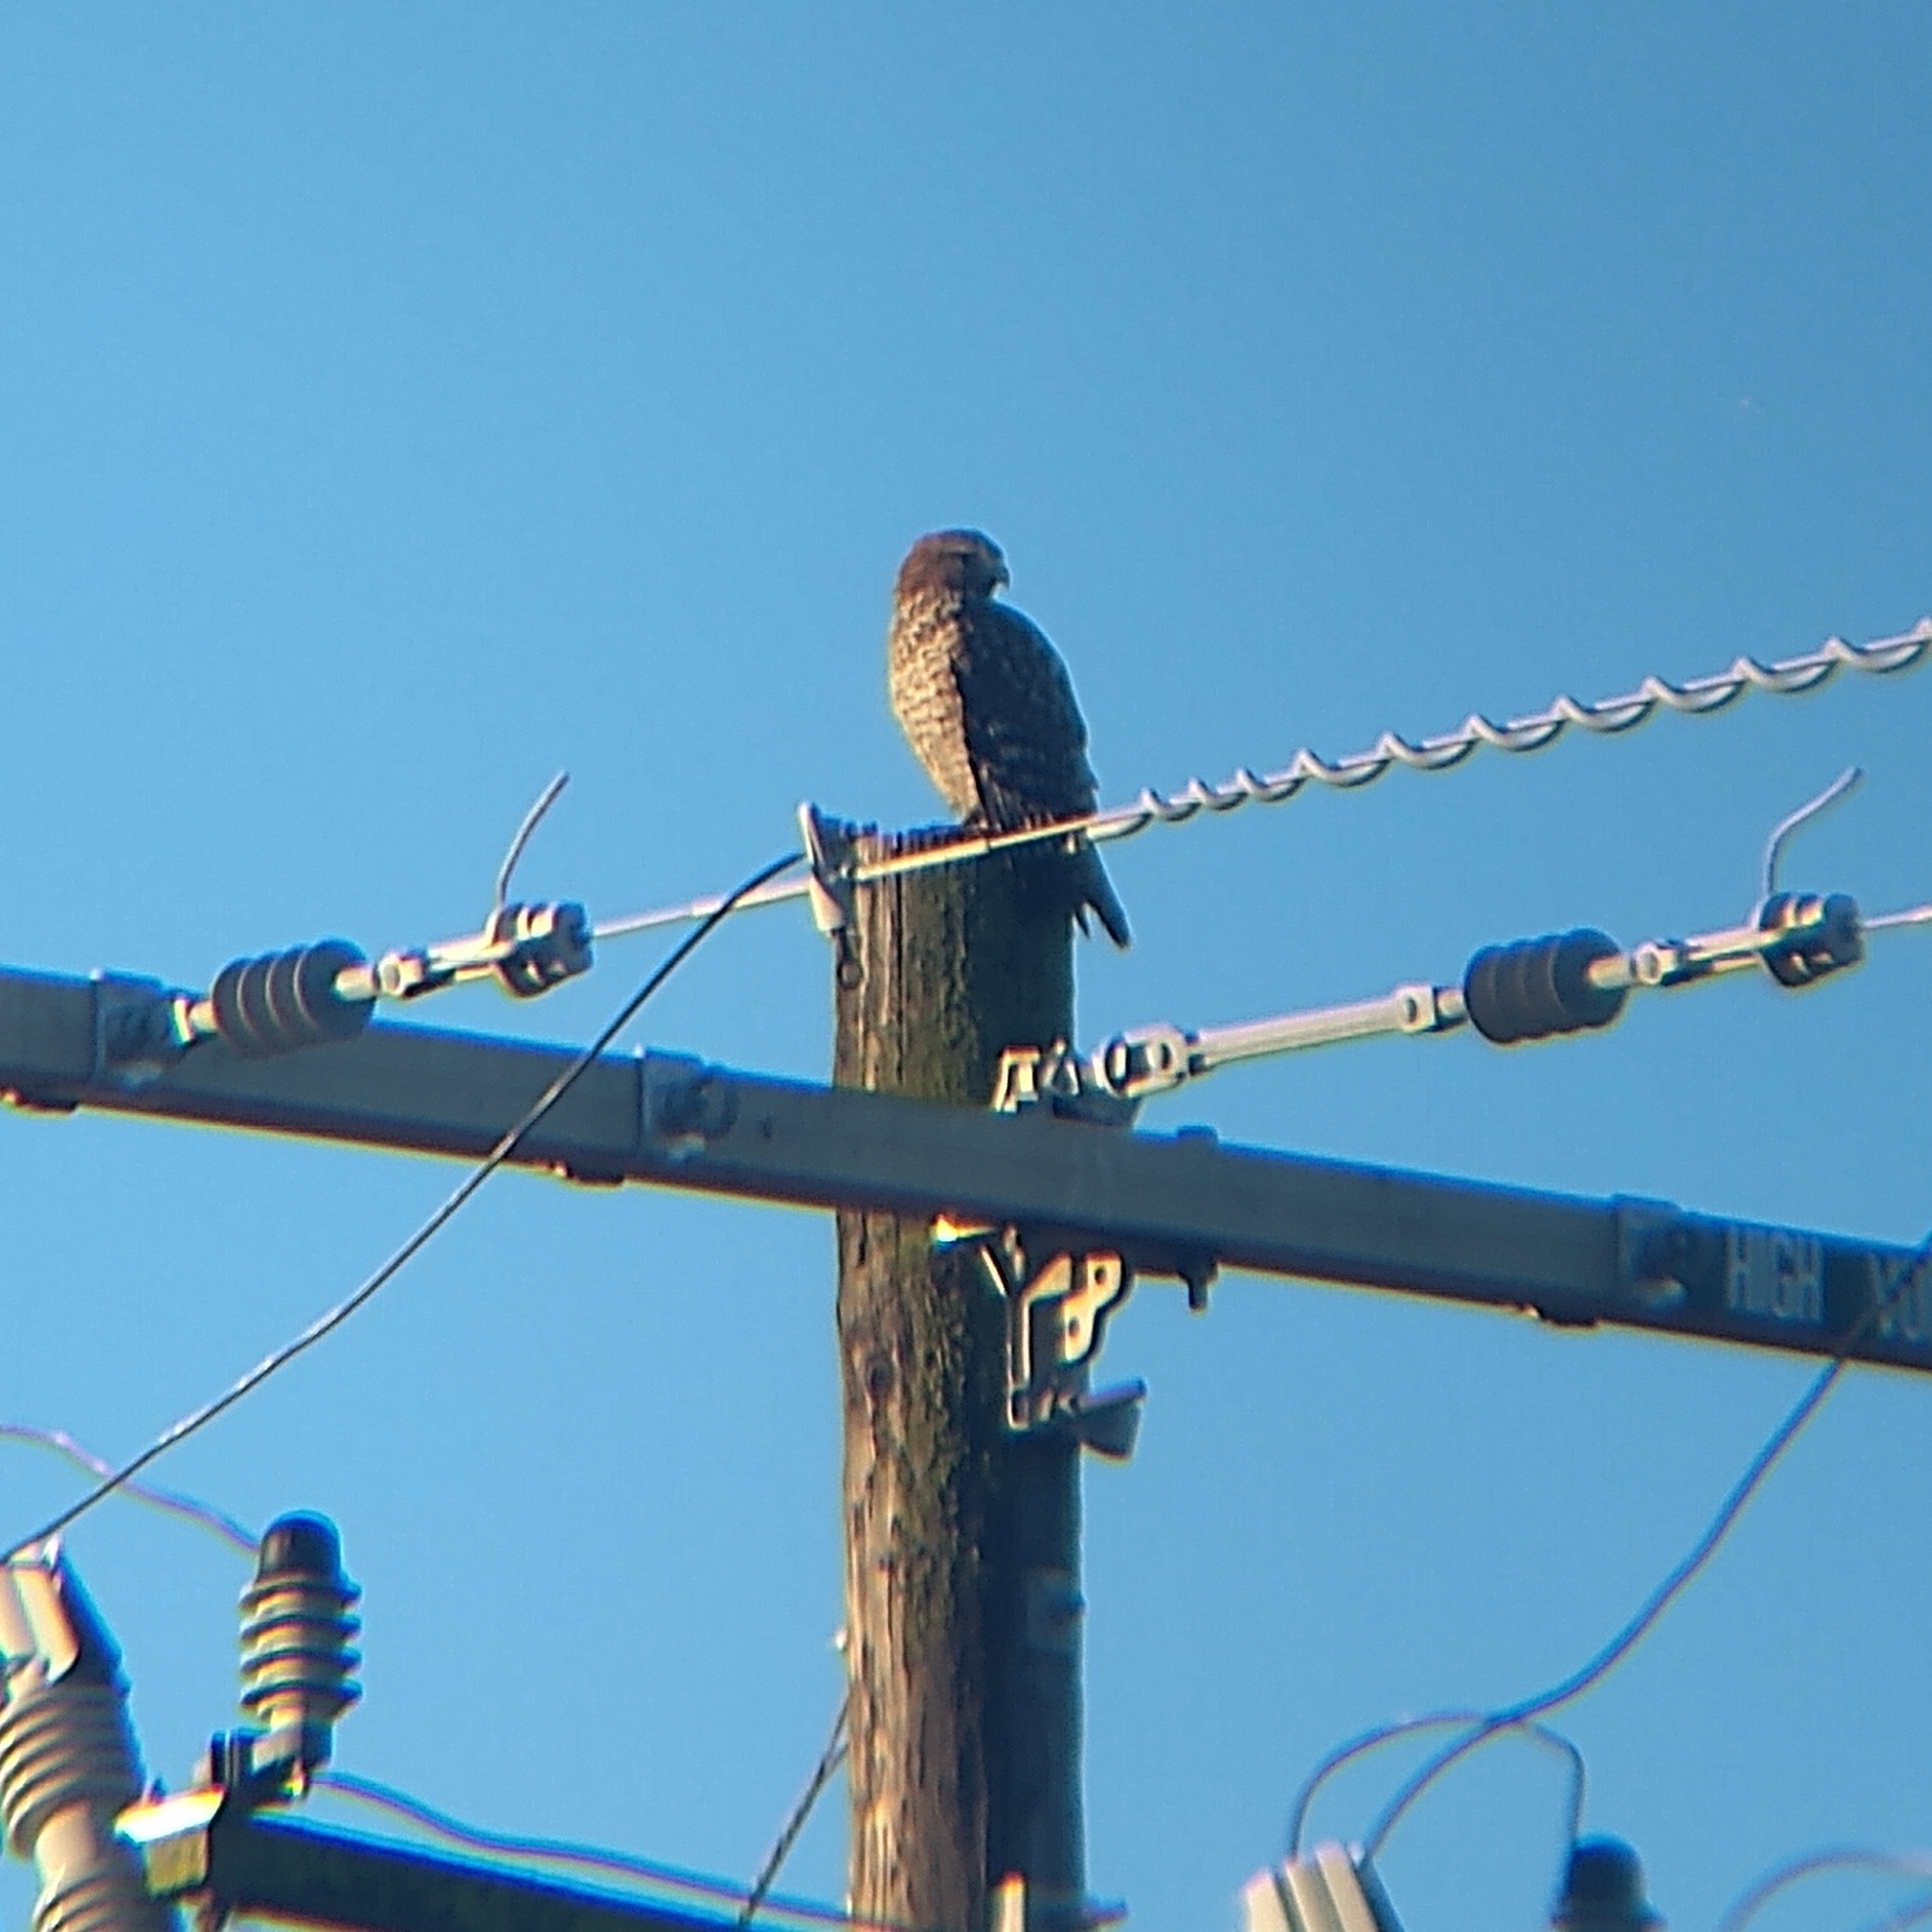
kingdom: Animalia
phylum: Chordata
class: Aves
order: Accipitriformes
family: Accipitridae
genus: Buteo
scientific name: Buteo lineatus
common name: Red-shouldered hawk
